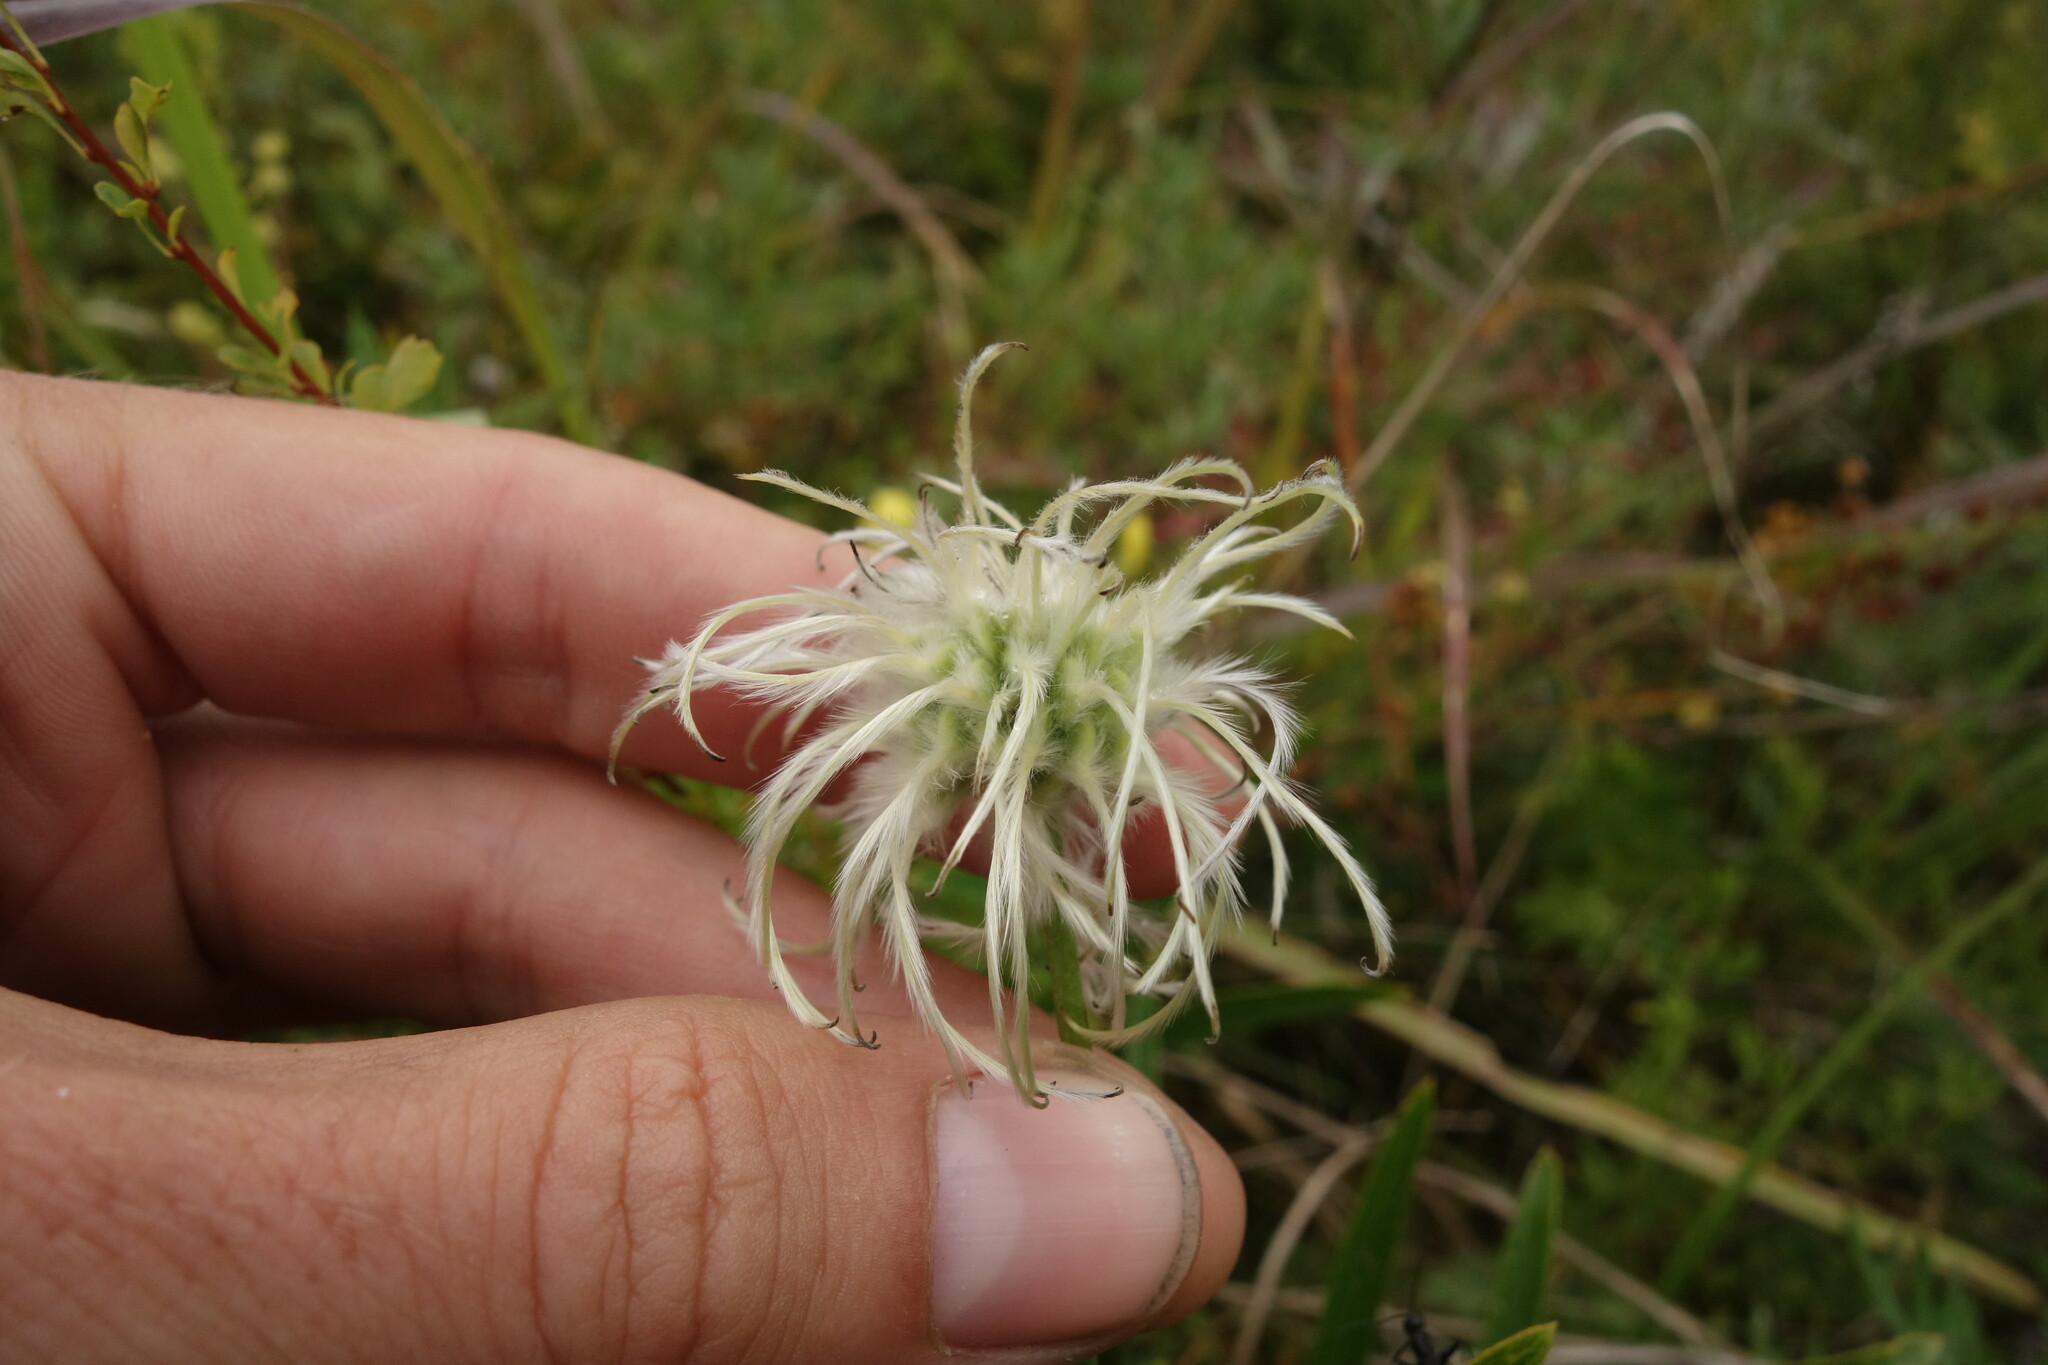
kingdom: Plantae
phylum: Tracheophyta
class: Magnoliopsida
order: Ranunculales
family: Ranunculaceae
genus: Clematis
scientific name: Clematis hexapetala
